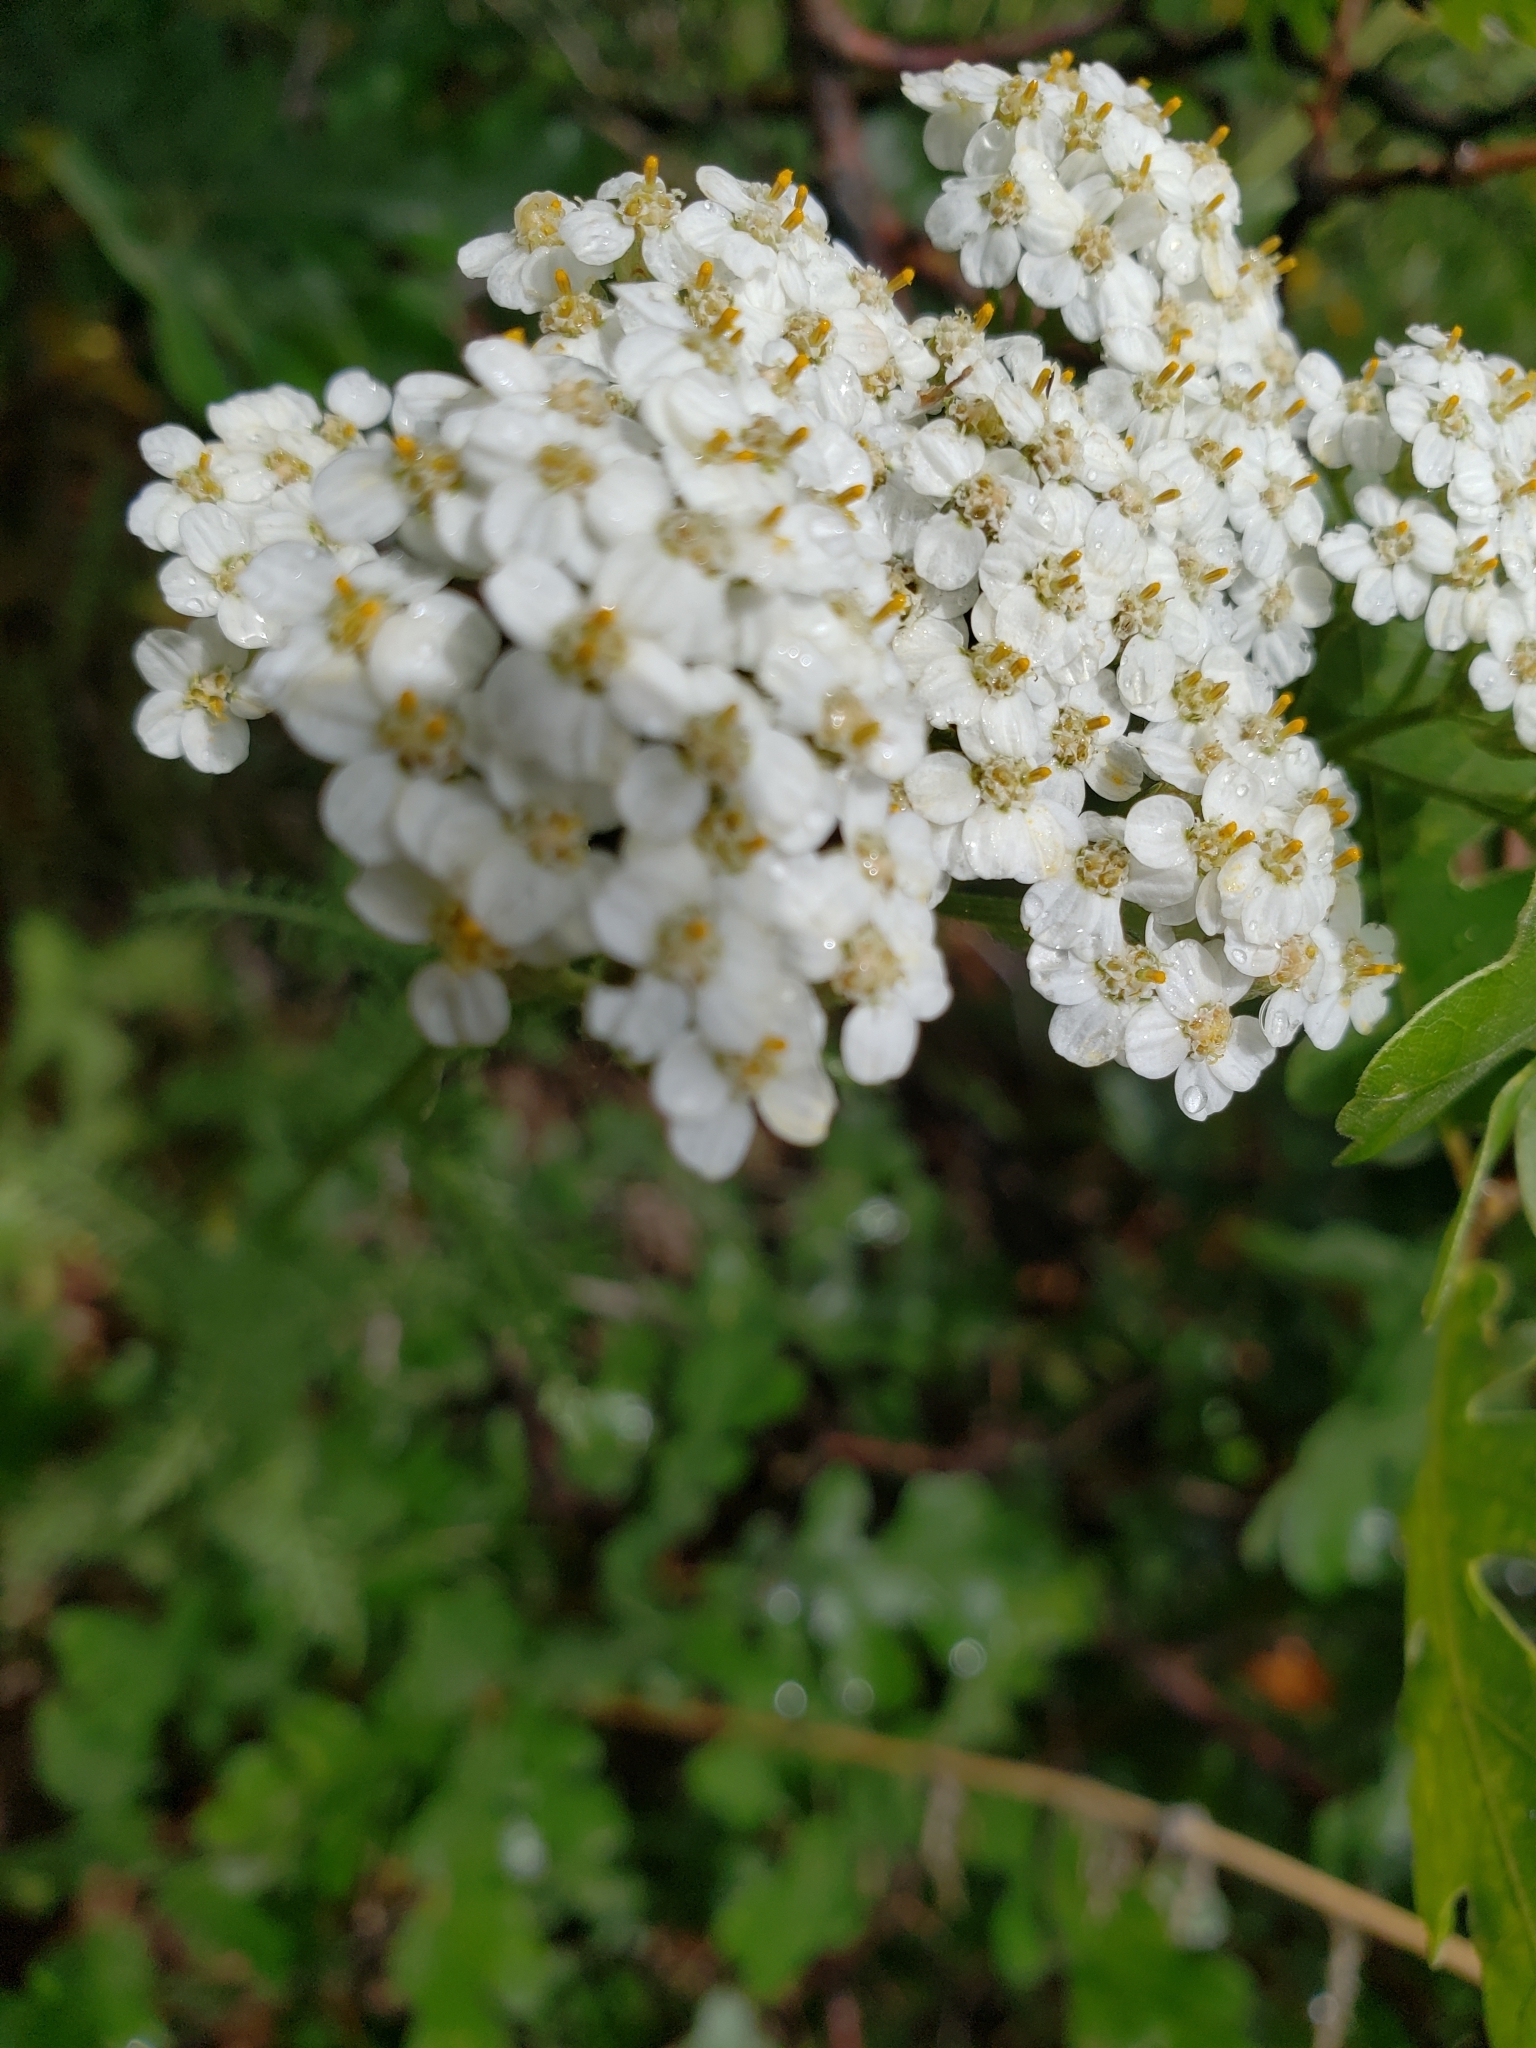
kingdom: Plantae
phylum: Tracheophyta
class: Magnoliopsida
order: Asterales
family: Asteraceae
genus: Achillea
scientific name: Achillea millefolium
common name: Yarrow
